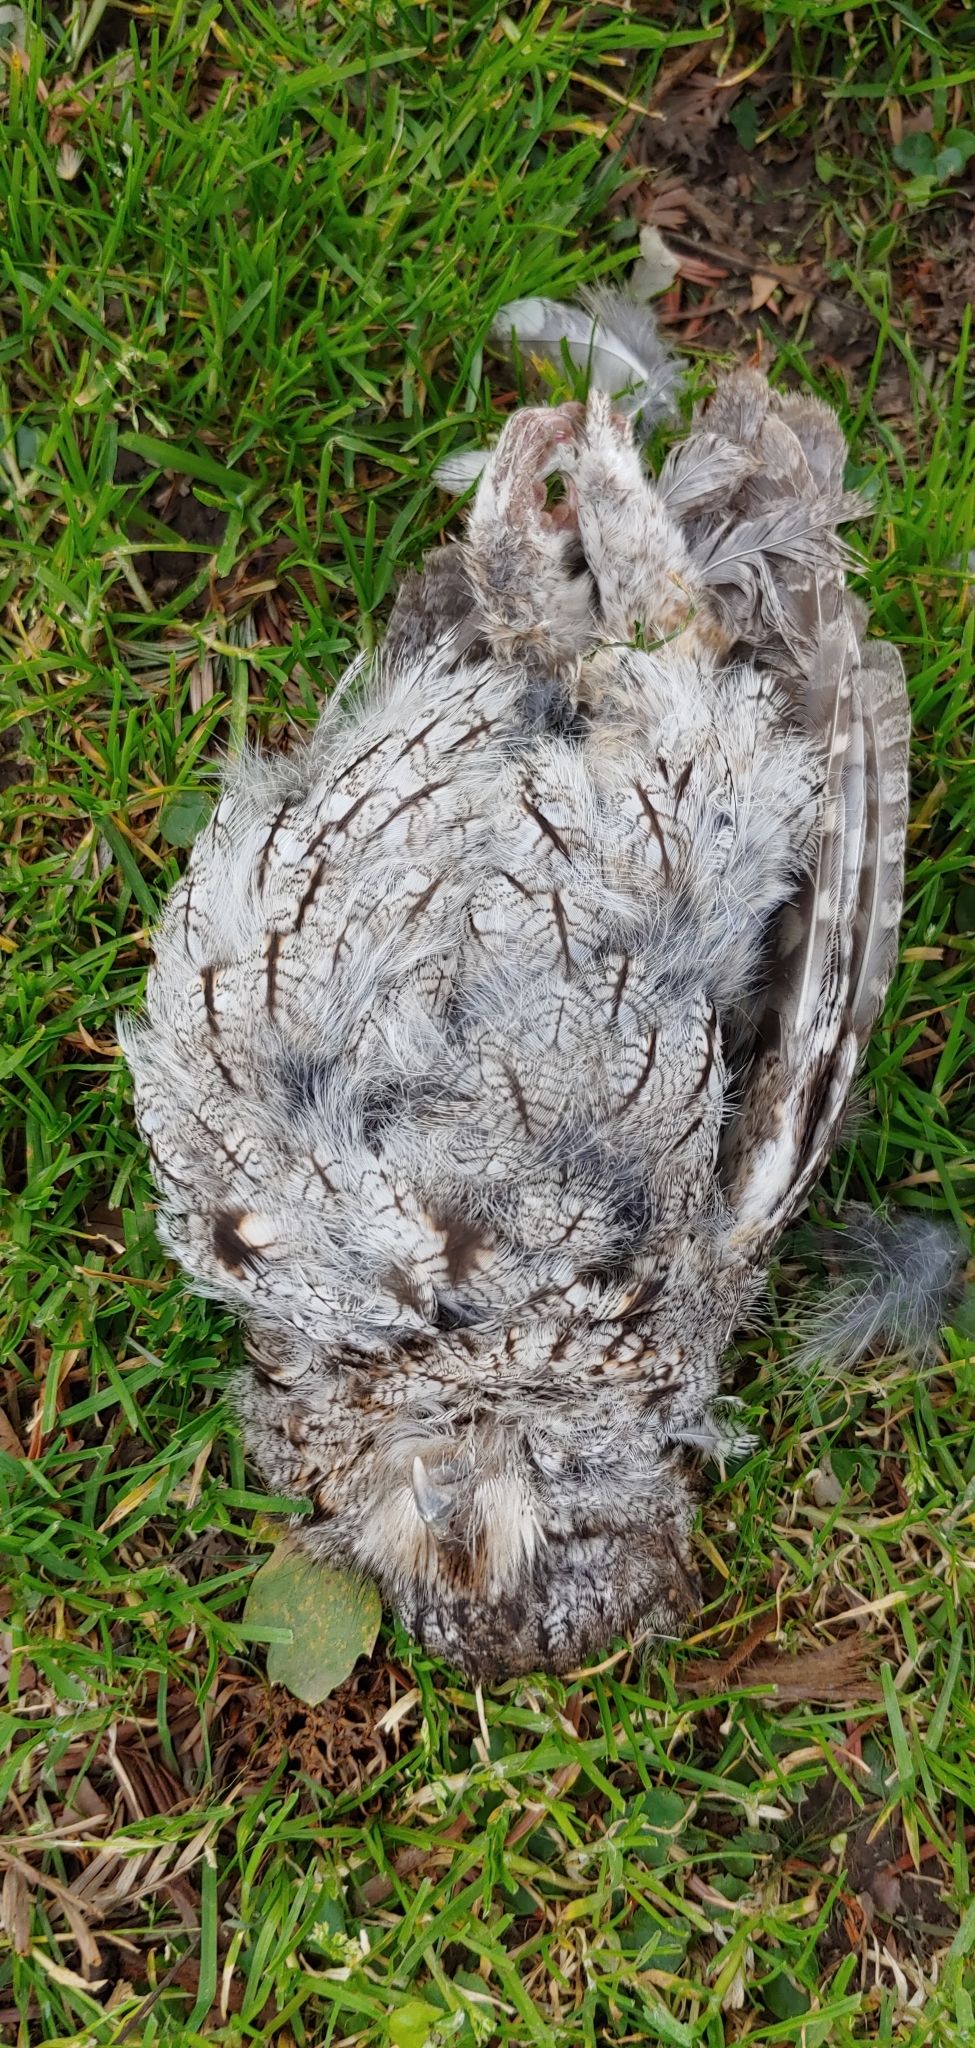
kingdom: Animalia
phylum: Chordata
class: Aves
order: Strigiformes
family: Strigidae
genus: Megascops
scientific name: Megascops kennicottii
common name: Western screech-owl
